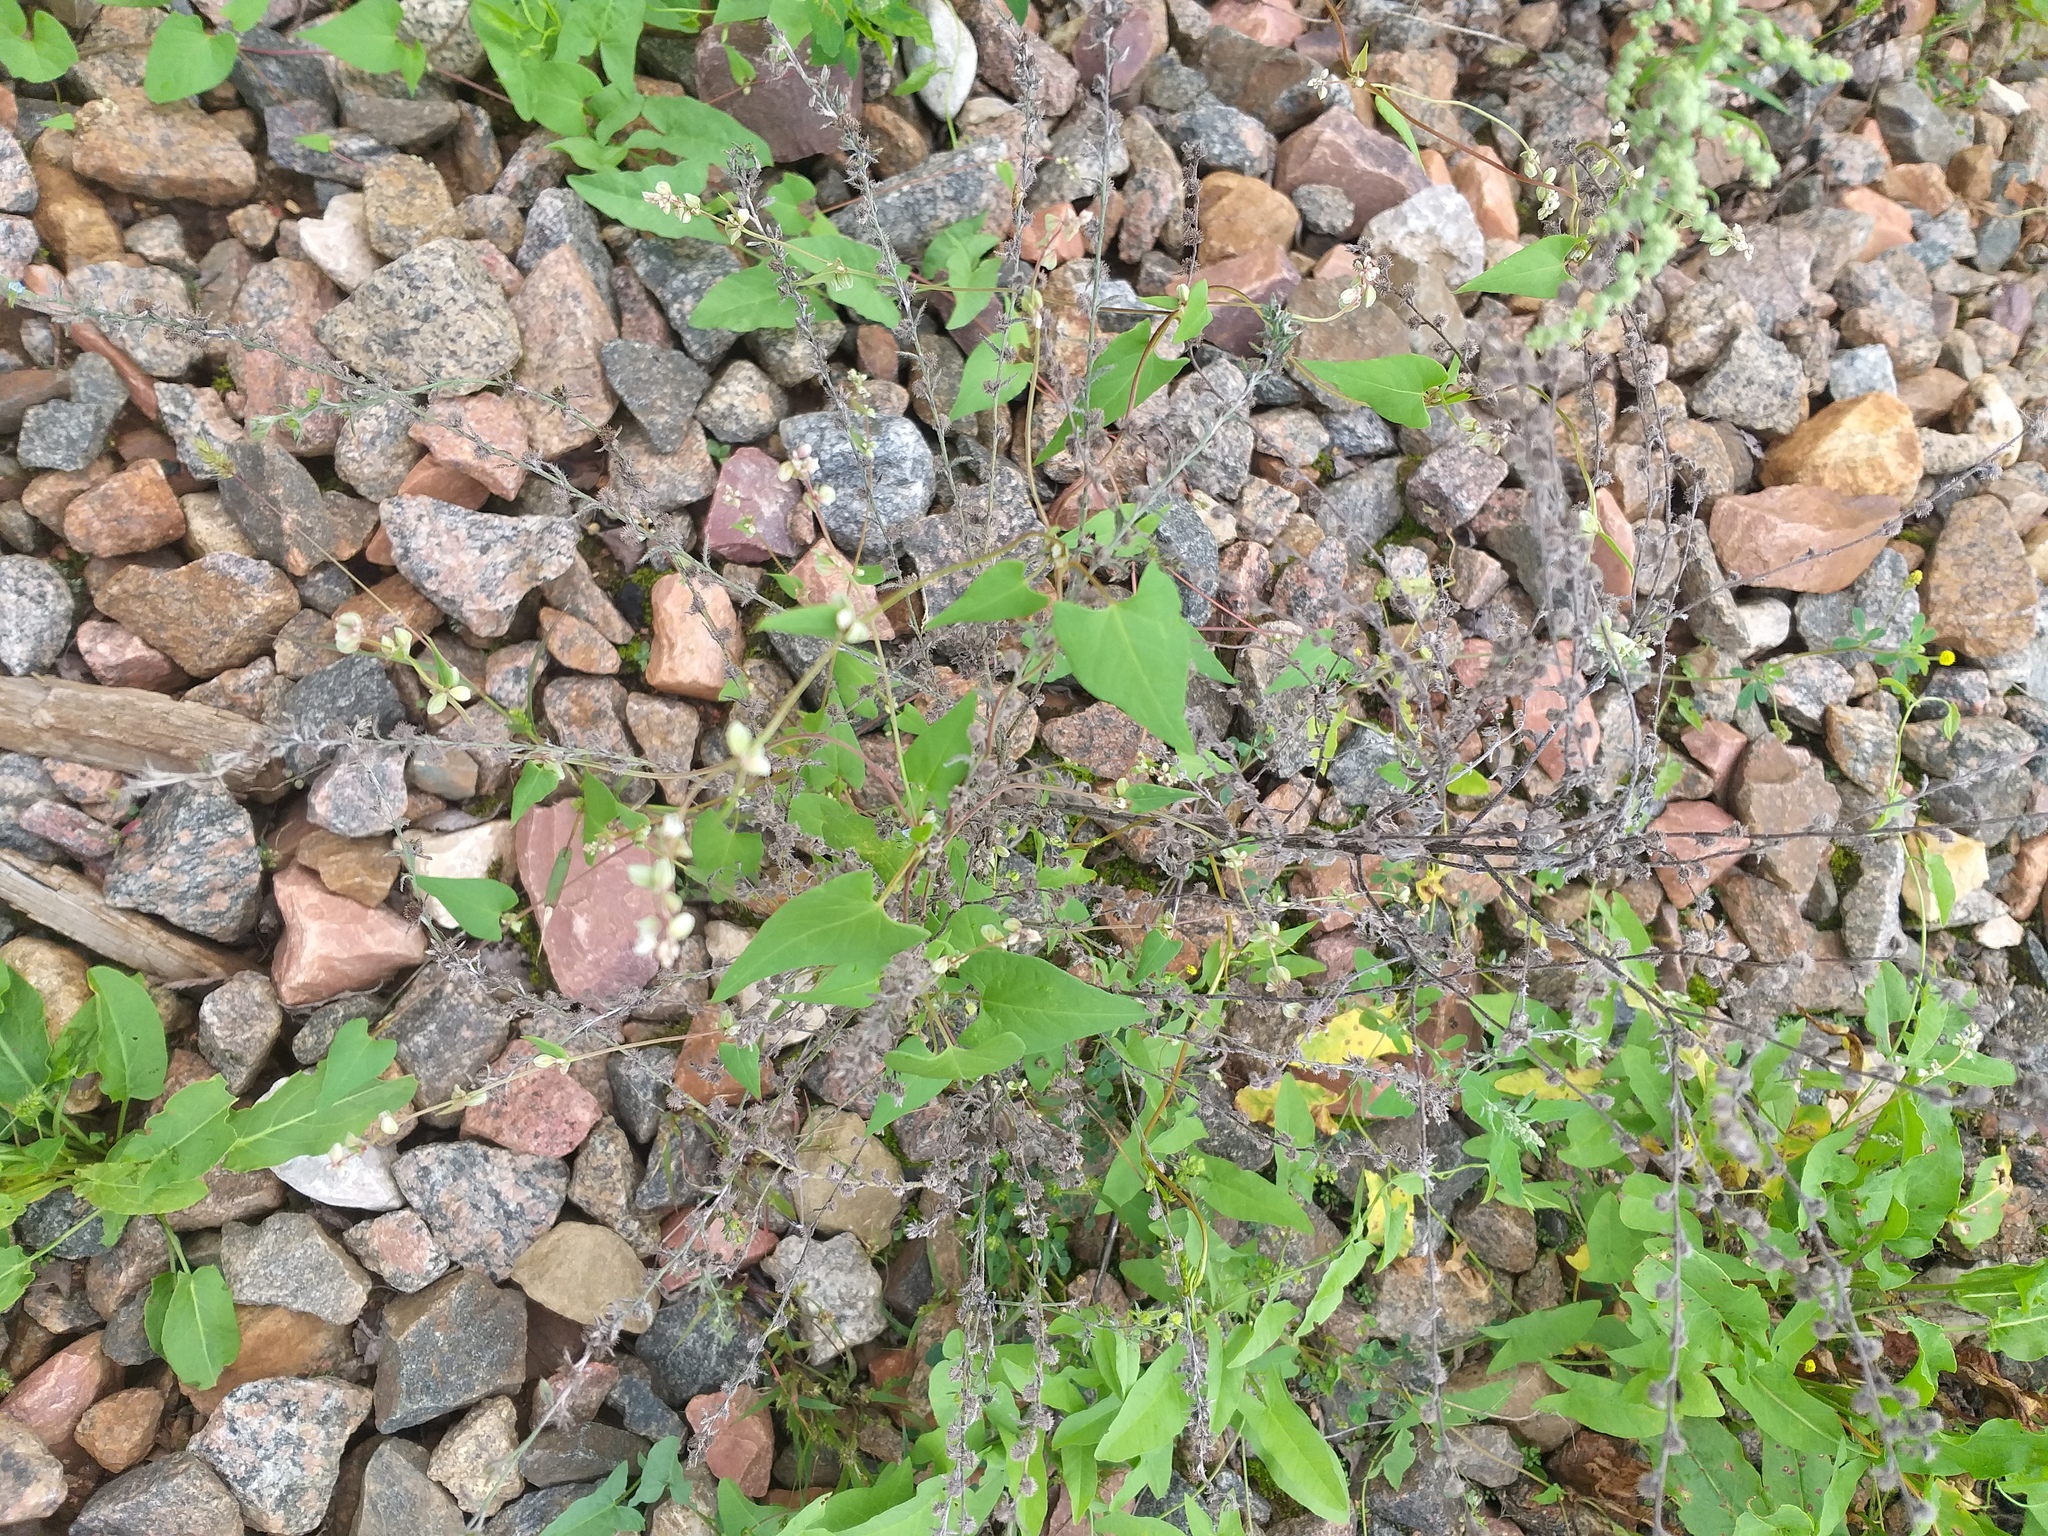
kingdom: Plantae
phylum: Tracheophyta
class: Magnoliopsida
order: Caryophyllales
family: Polygonaceae
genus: Fallopia
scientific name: Fallopia convolvulus
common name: Black bindweed
